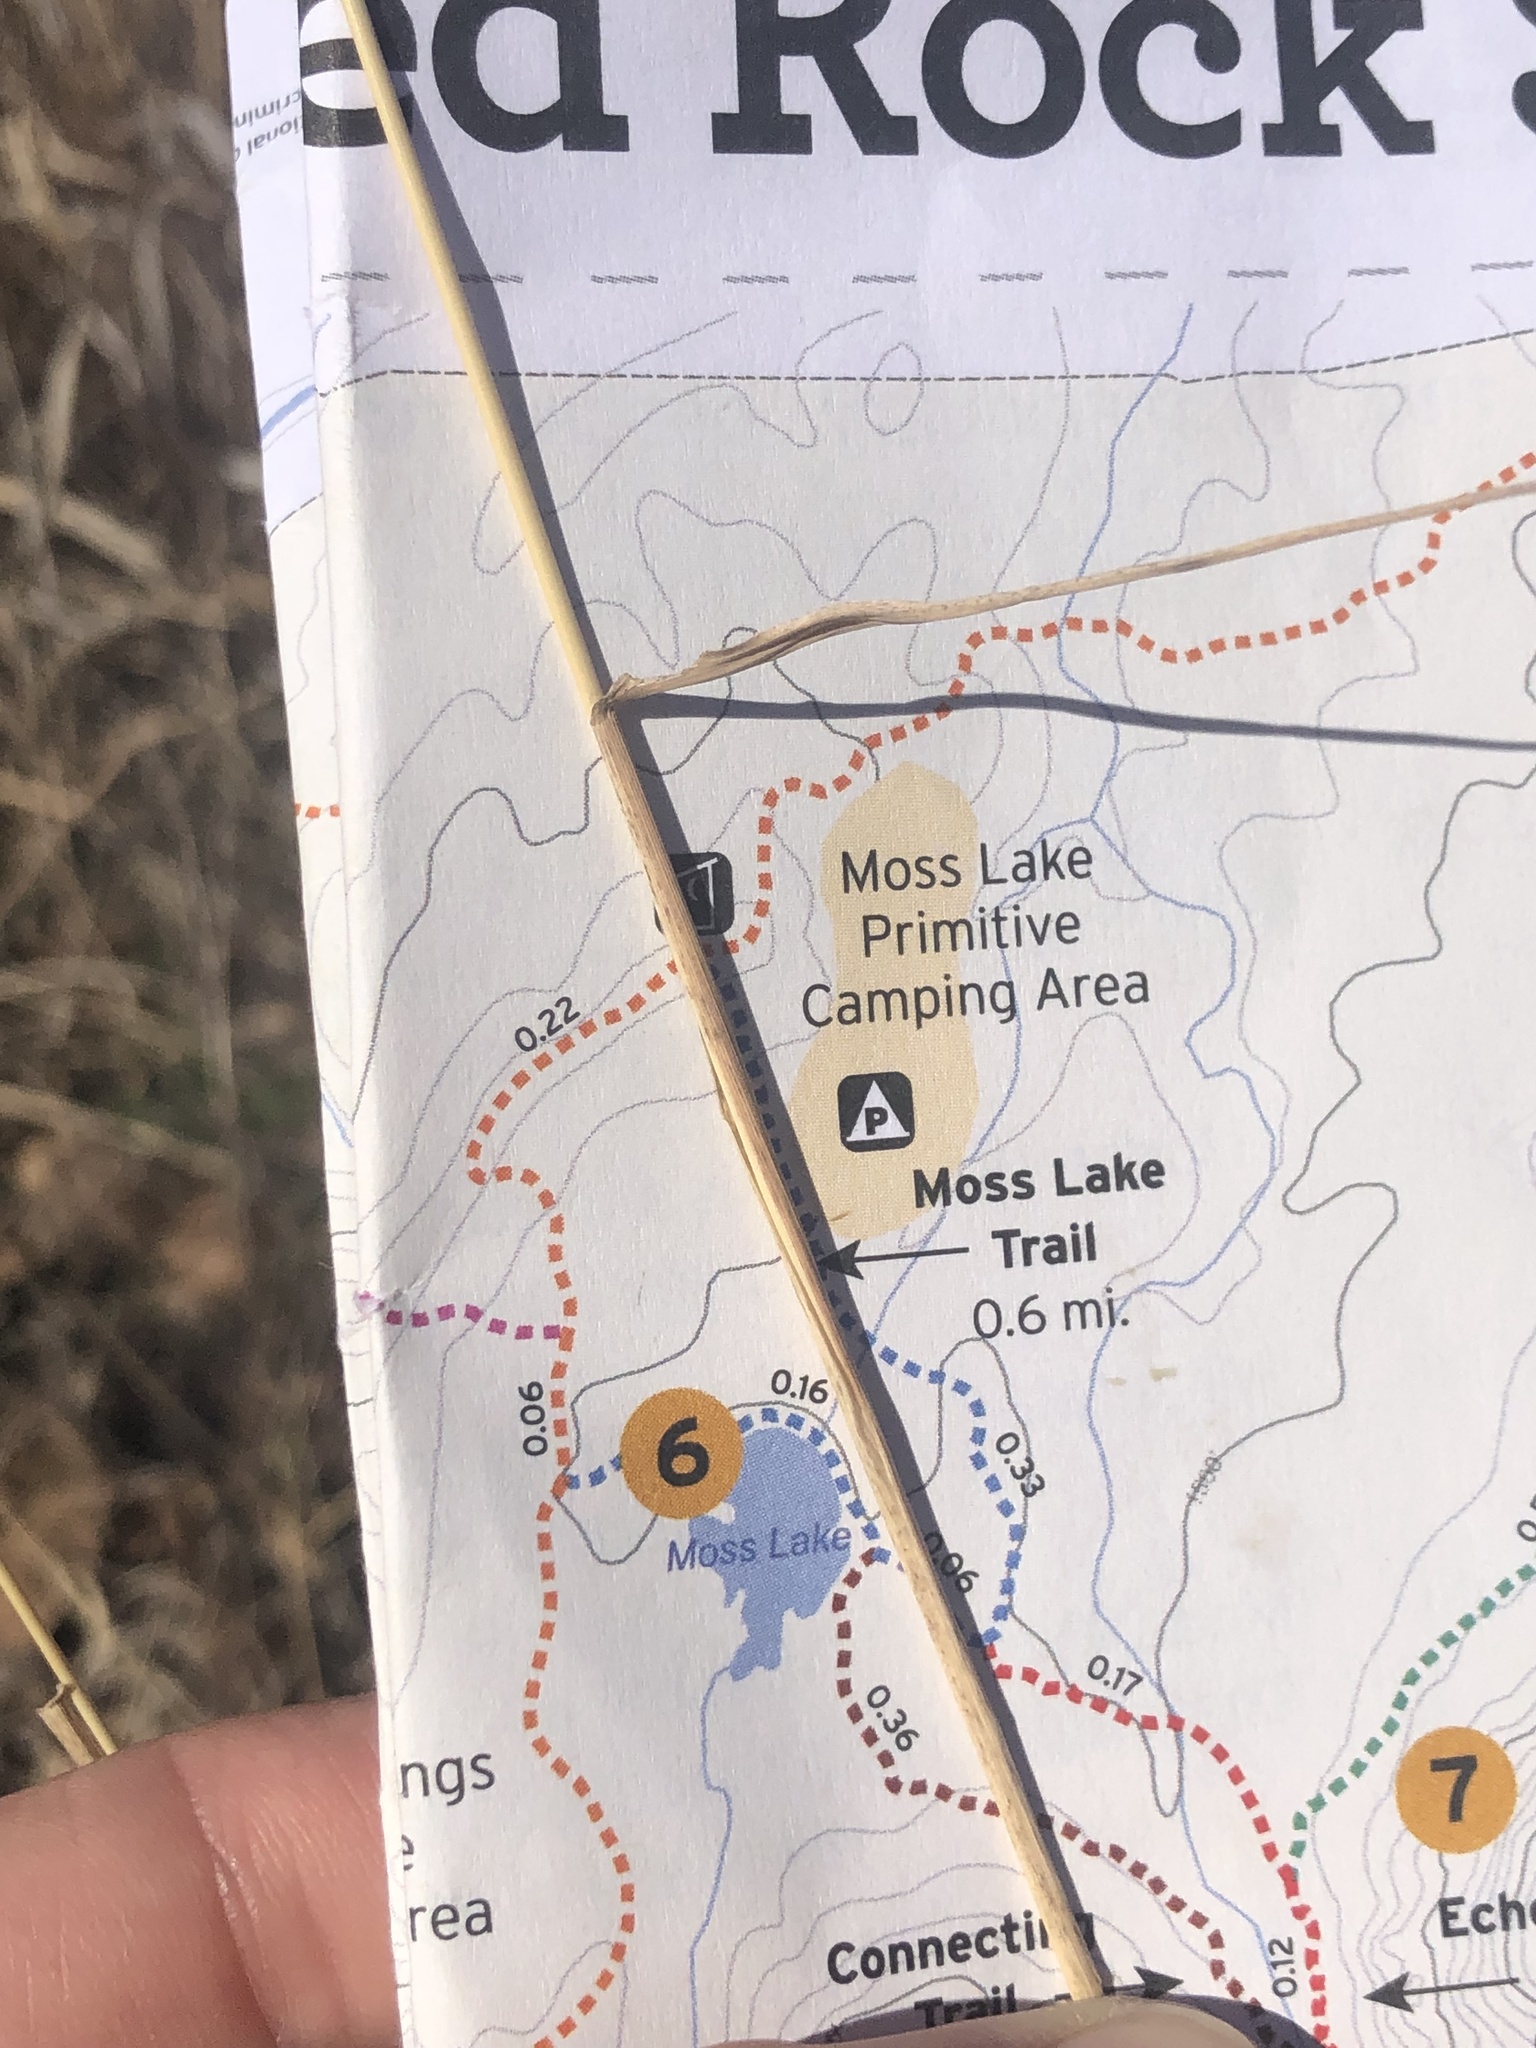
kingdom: Plantae
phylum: Tracheophyta
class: Liliopsida
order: Poales
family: Poaceae
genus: Bouteloua
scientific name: Bouteloua curtipendula
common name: Side-oats grama
